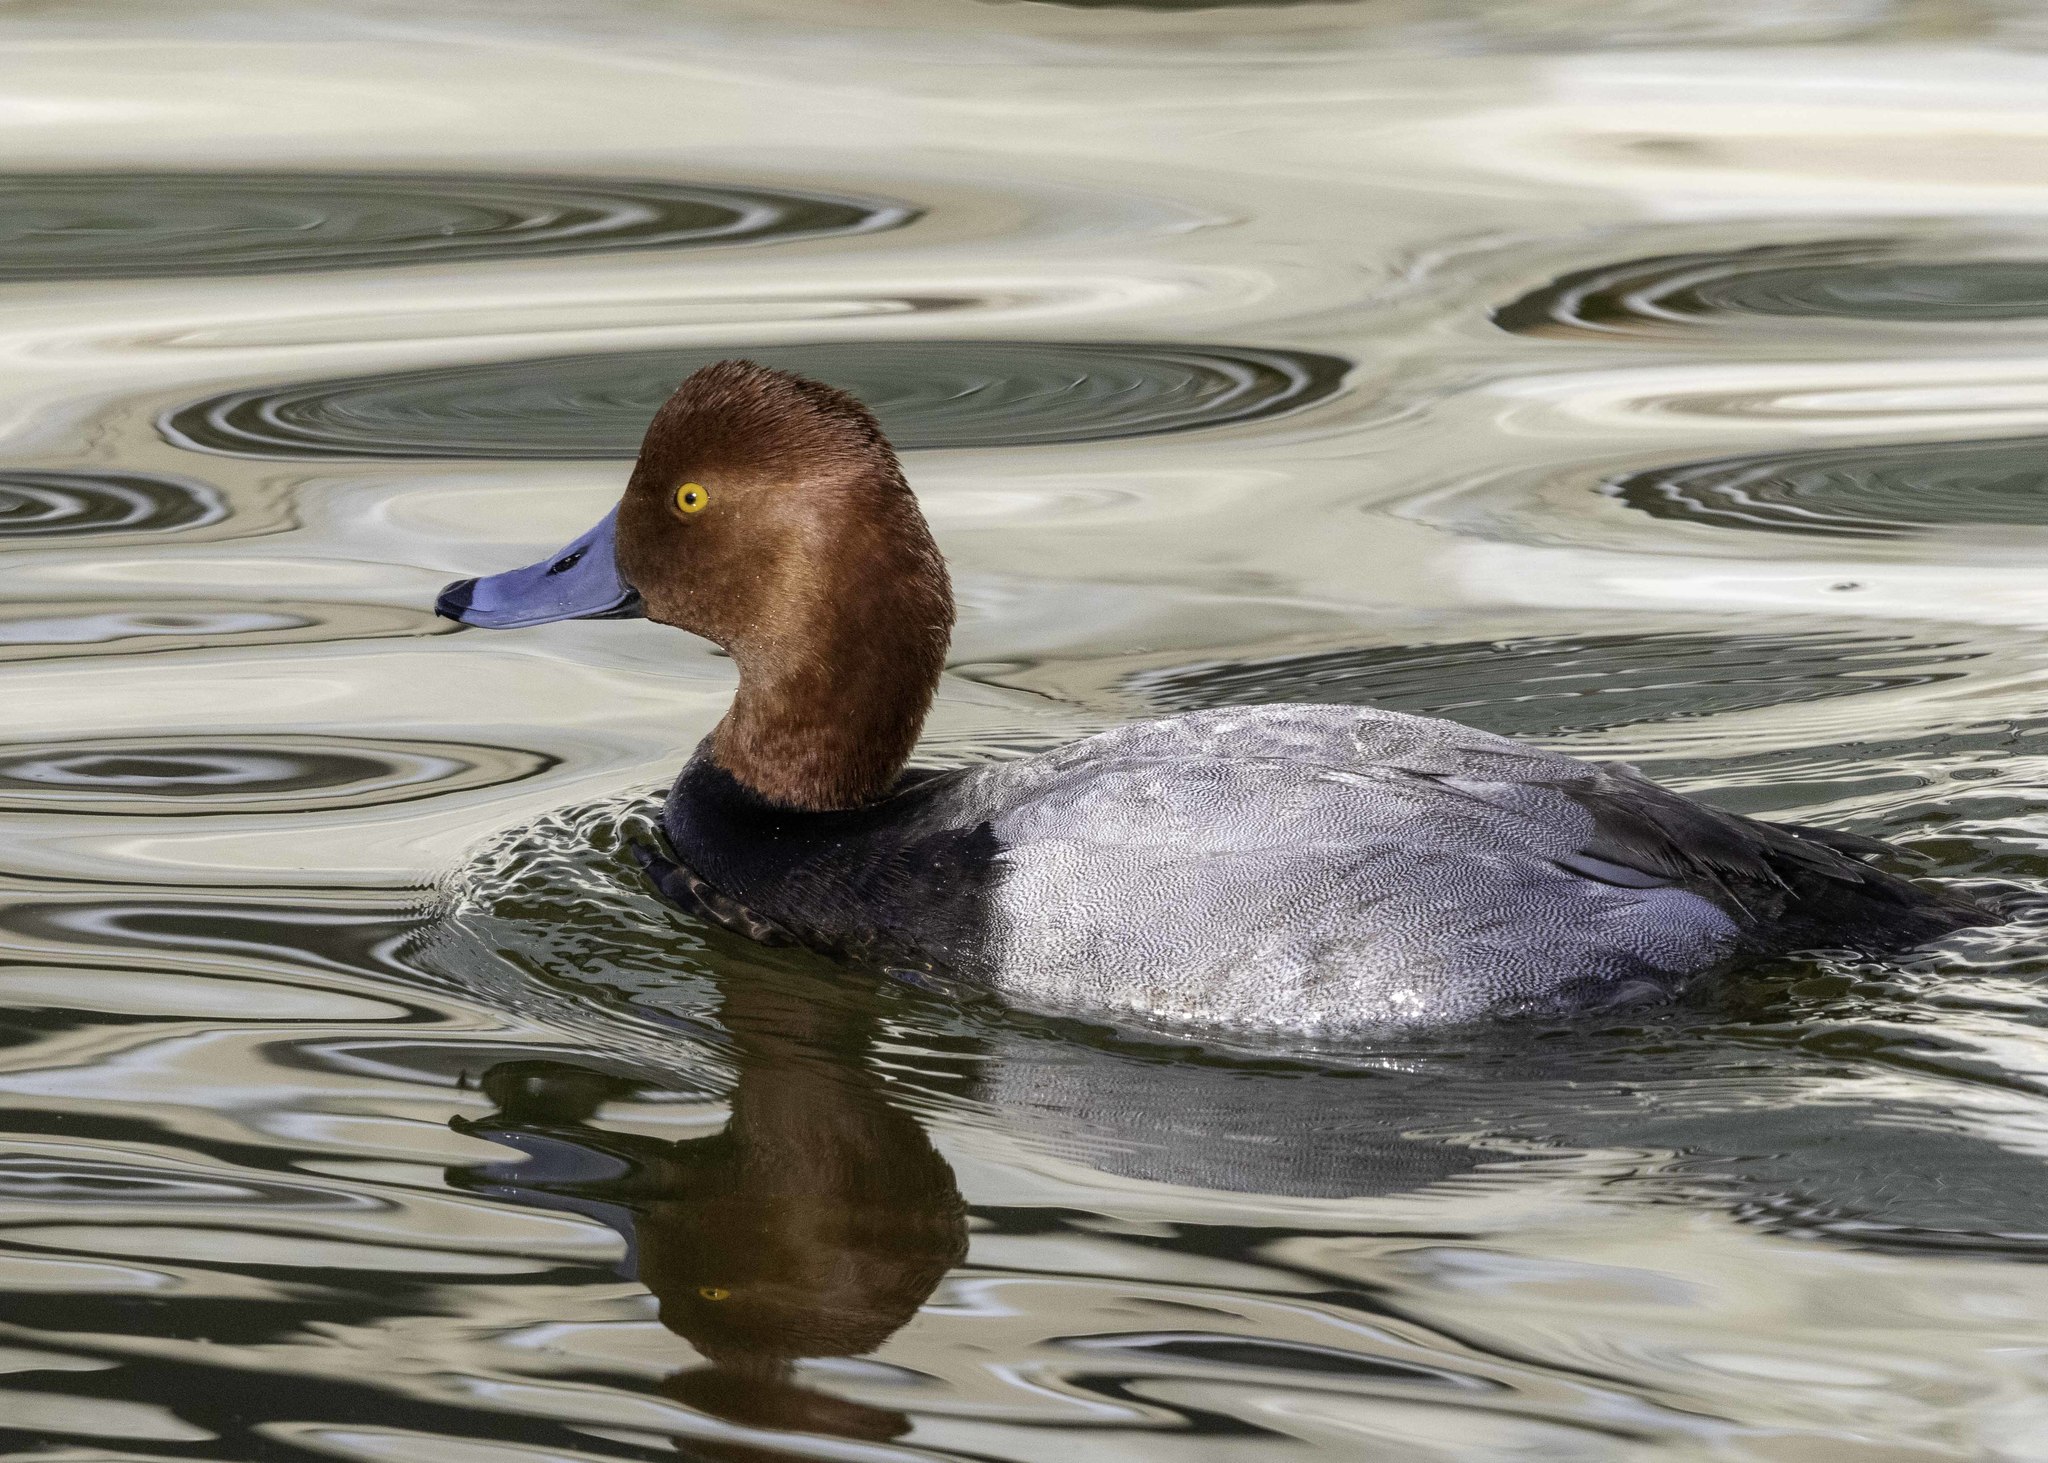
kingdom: Animalia
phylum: Chordata
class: Aves
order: Anseriformes
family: Anatidae
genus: Aythya
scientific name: Aythya americana
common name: Redhead
